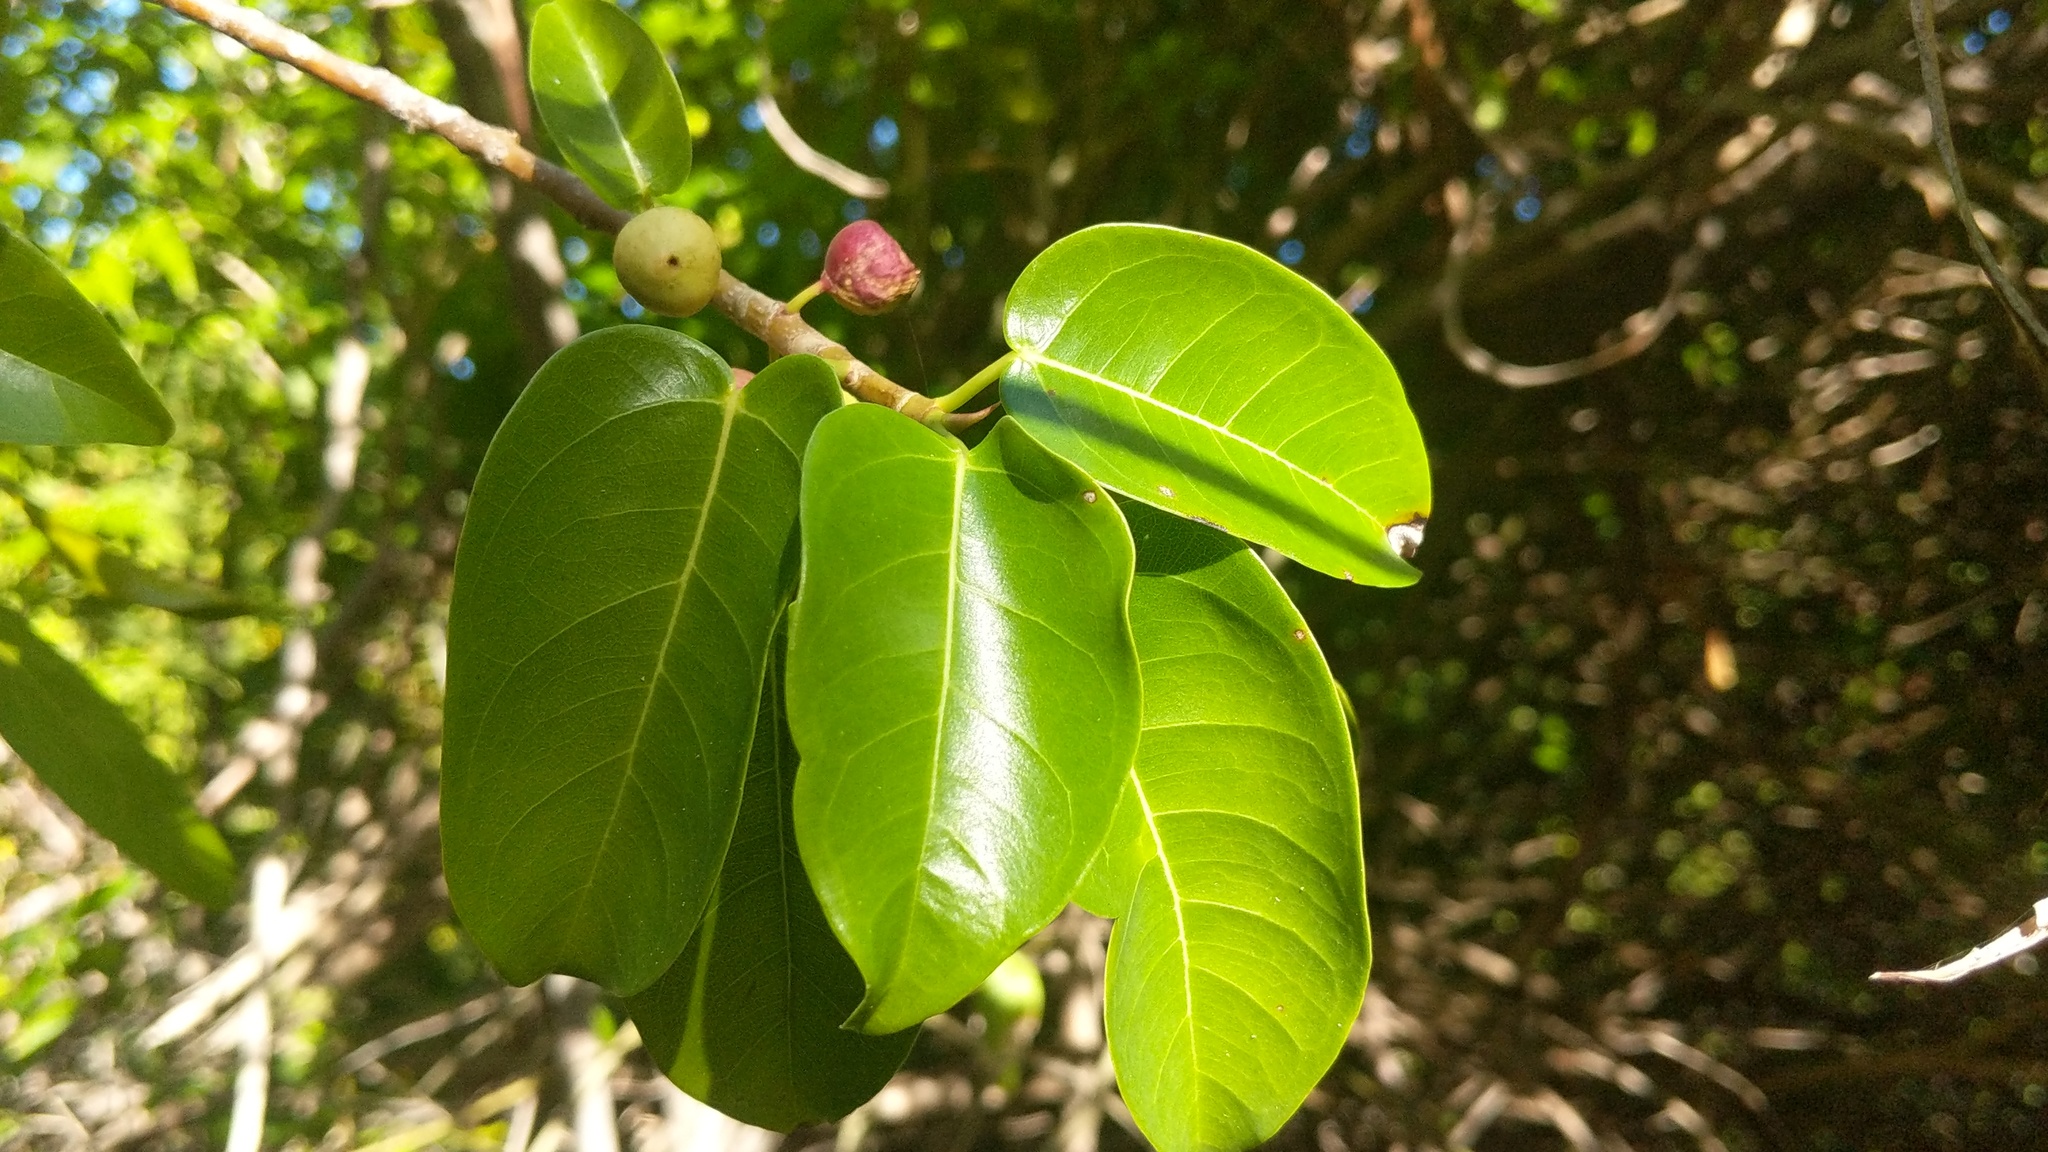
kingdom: Plantae
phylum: Tracheophyta
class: Magnoliopsida
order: Rosales
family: Moraceae
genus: Ficus
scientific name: Ficus citrifolia
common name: Strangler fig
